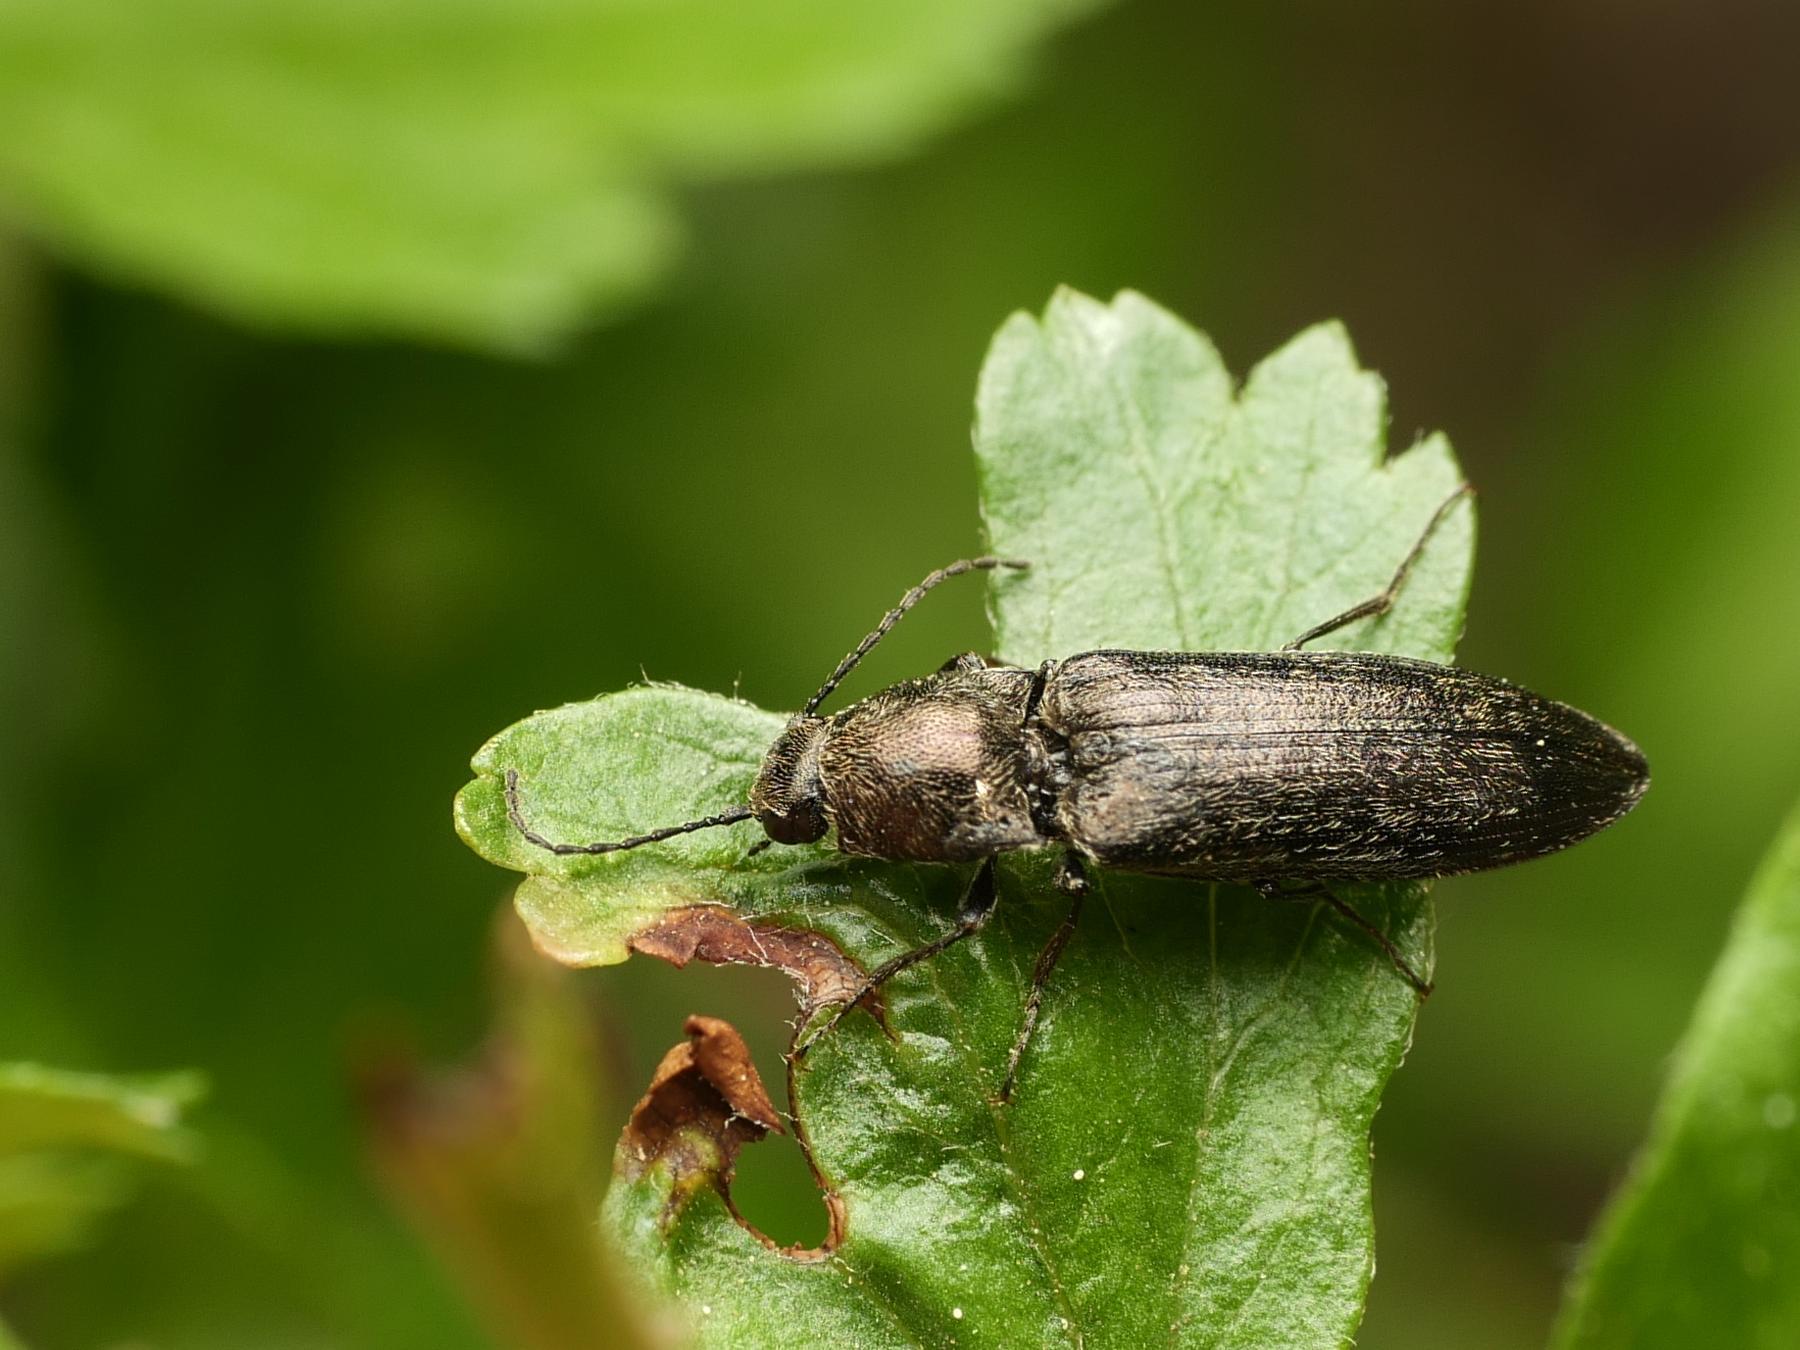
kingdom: Animalia
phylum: Arthropoda
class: Insecta
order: Coleoptera
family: Elateridae
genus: Cidnopus
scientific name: Cidnopus aeruginosus
